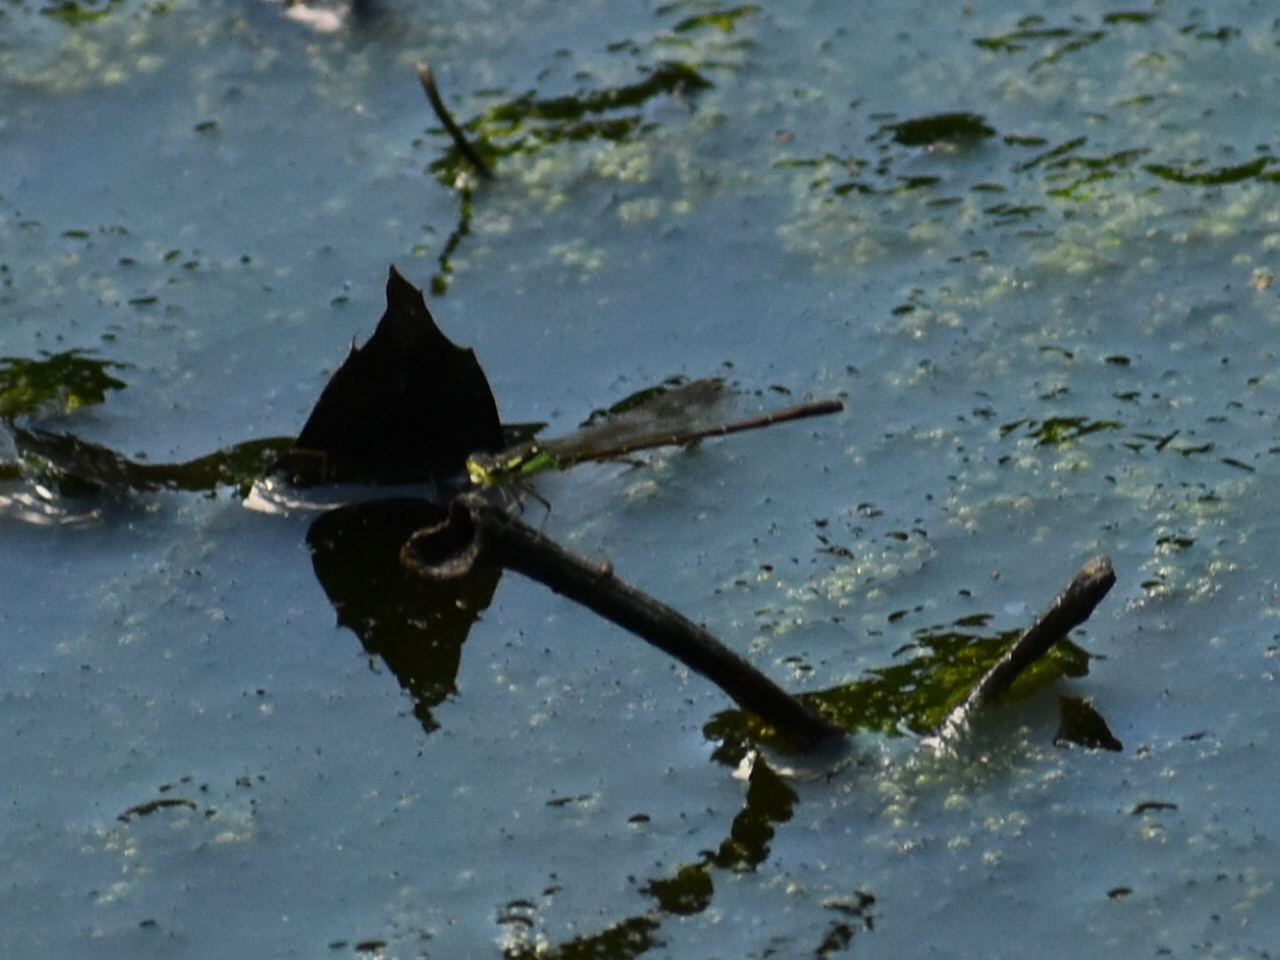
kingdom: Animalia
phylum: Arthropoda
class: Insecta
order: Odonata
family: Coenagrionidae
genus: Ischnura
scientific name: Ischnura posita
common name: Fragile forktail
